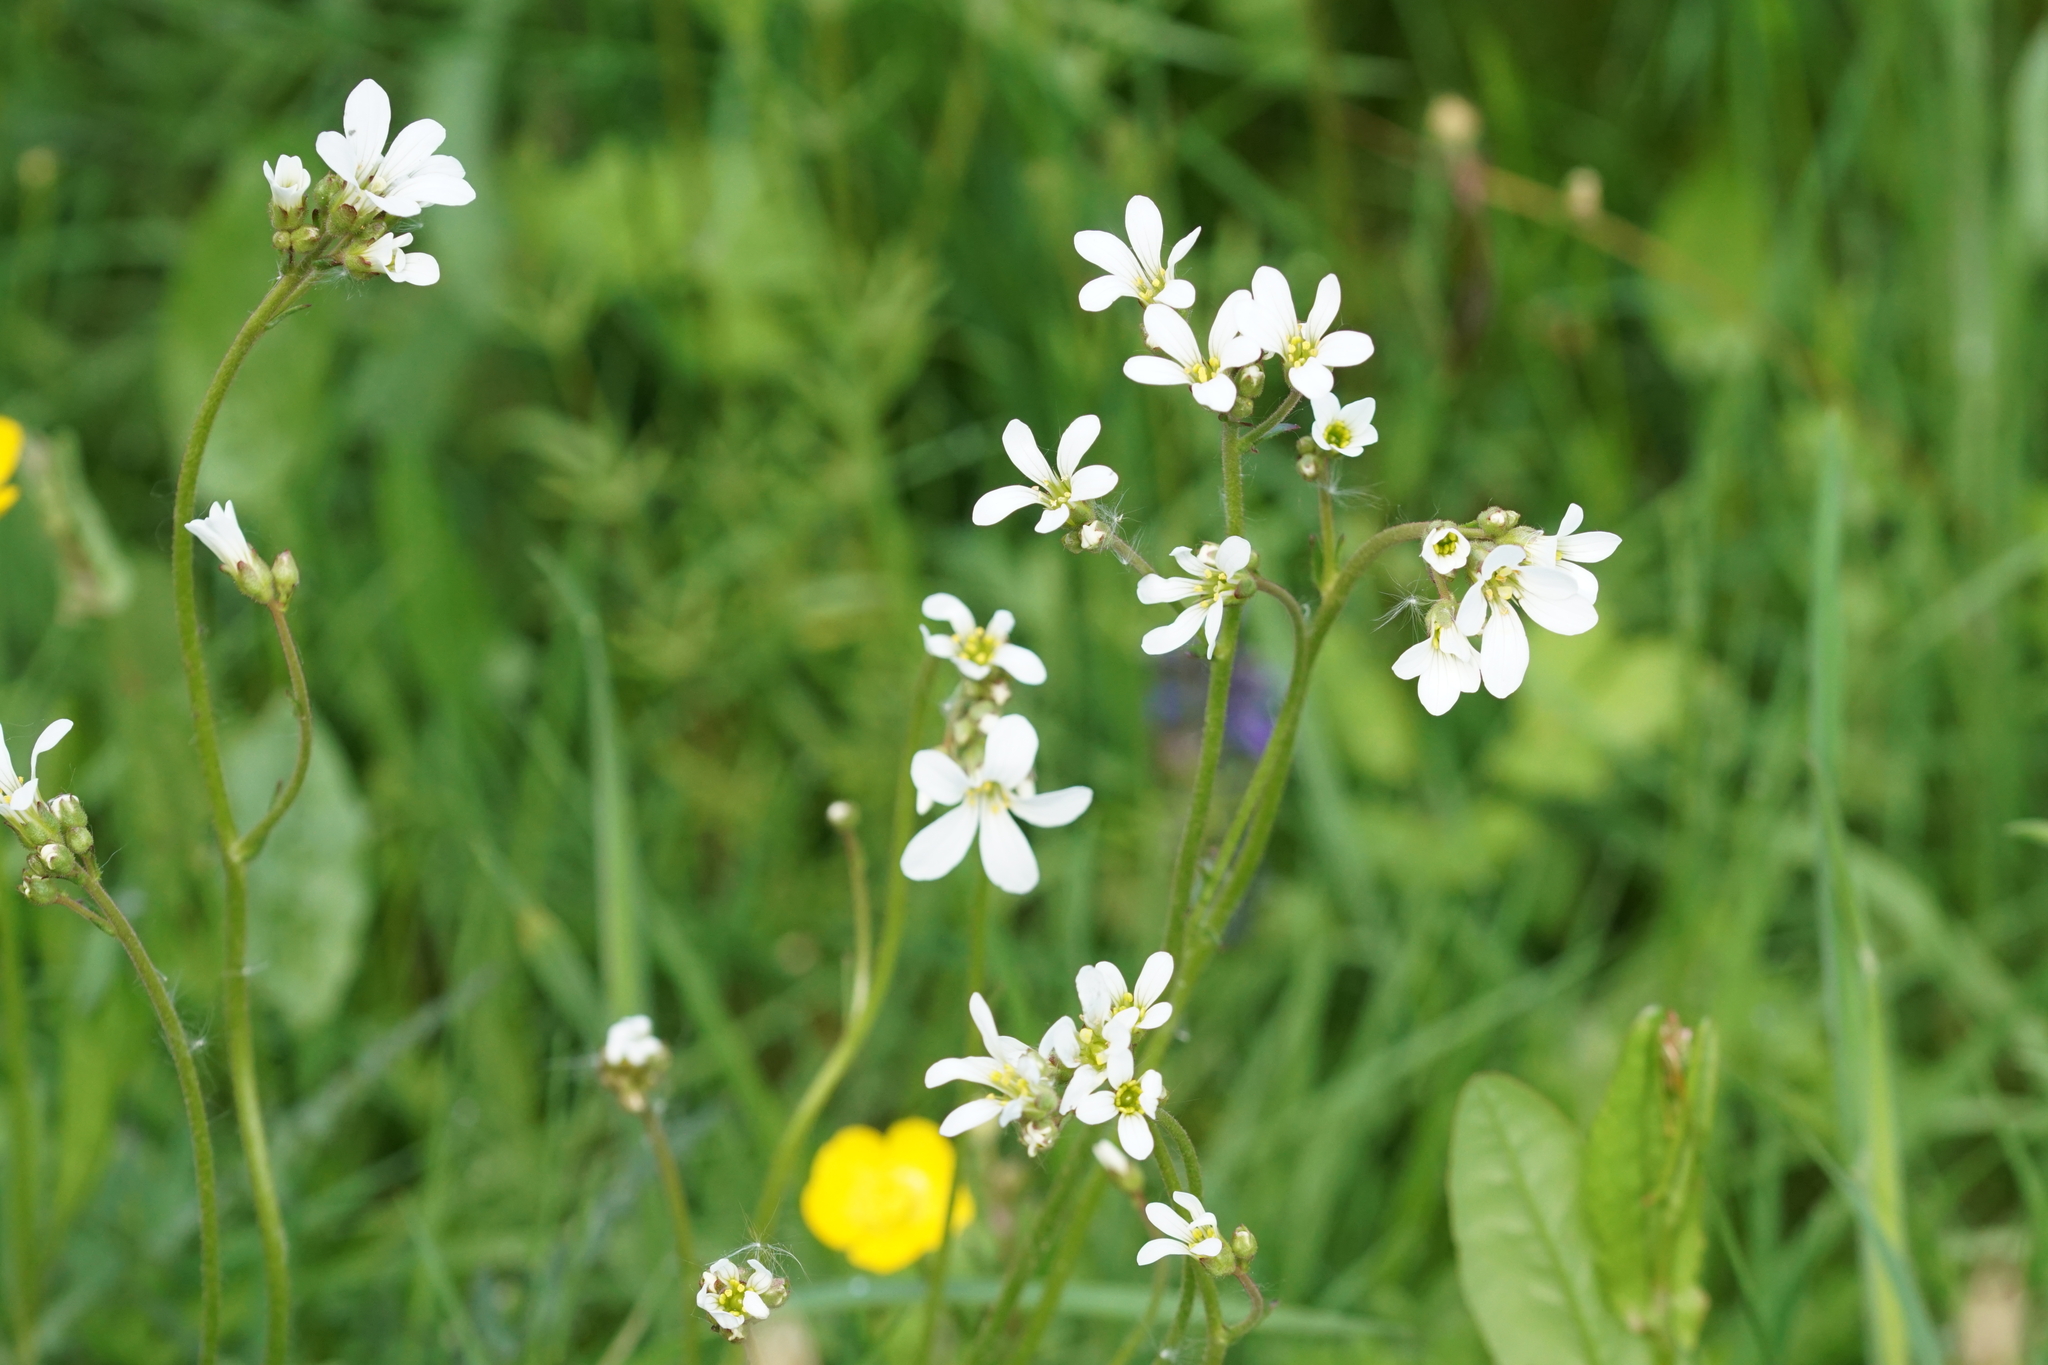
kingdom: Plantae
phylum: Tracheophyta
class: Magnoliopsida
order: Saxifragales
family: Saxifragaceae
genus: Saxifraga
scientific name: Saxifraga granulata
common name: Meadow saxifrage
